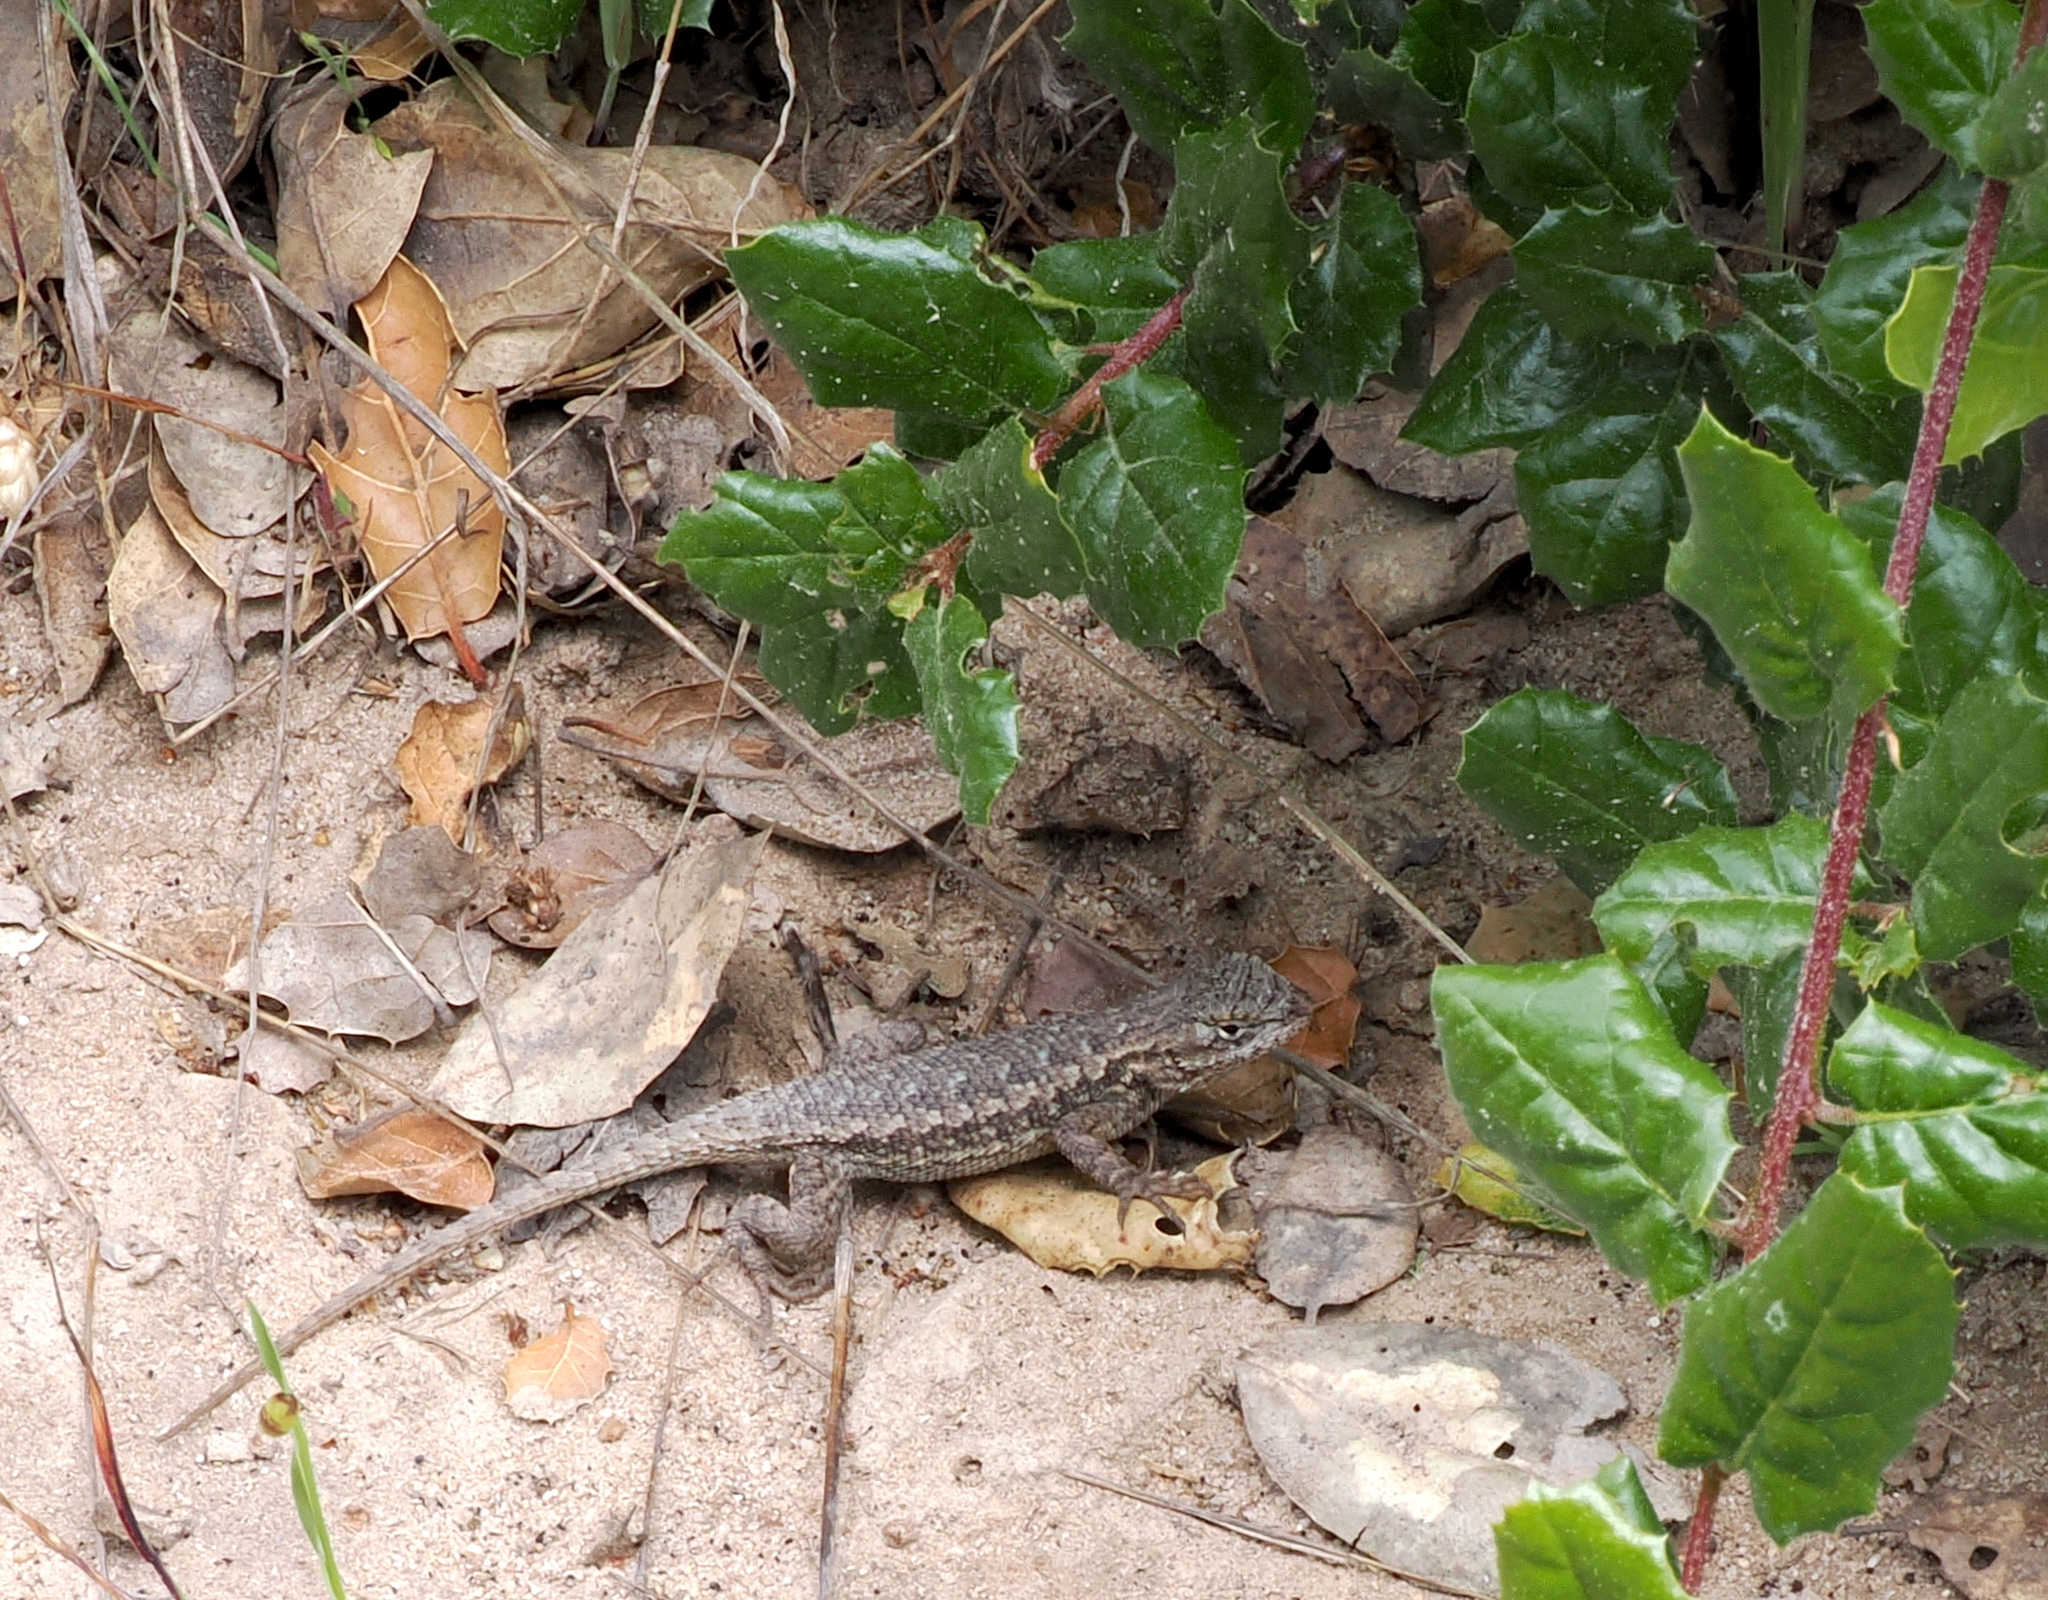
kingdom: Animalia
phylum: Chordata
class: Squamata
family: Phrynosomatidae
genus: Sceloporus
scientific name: Sceloporus occidentalis
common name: Western fence lizard
